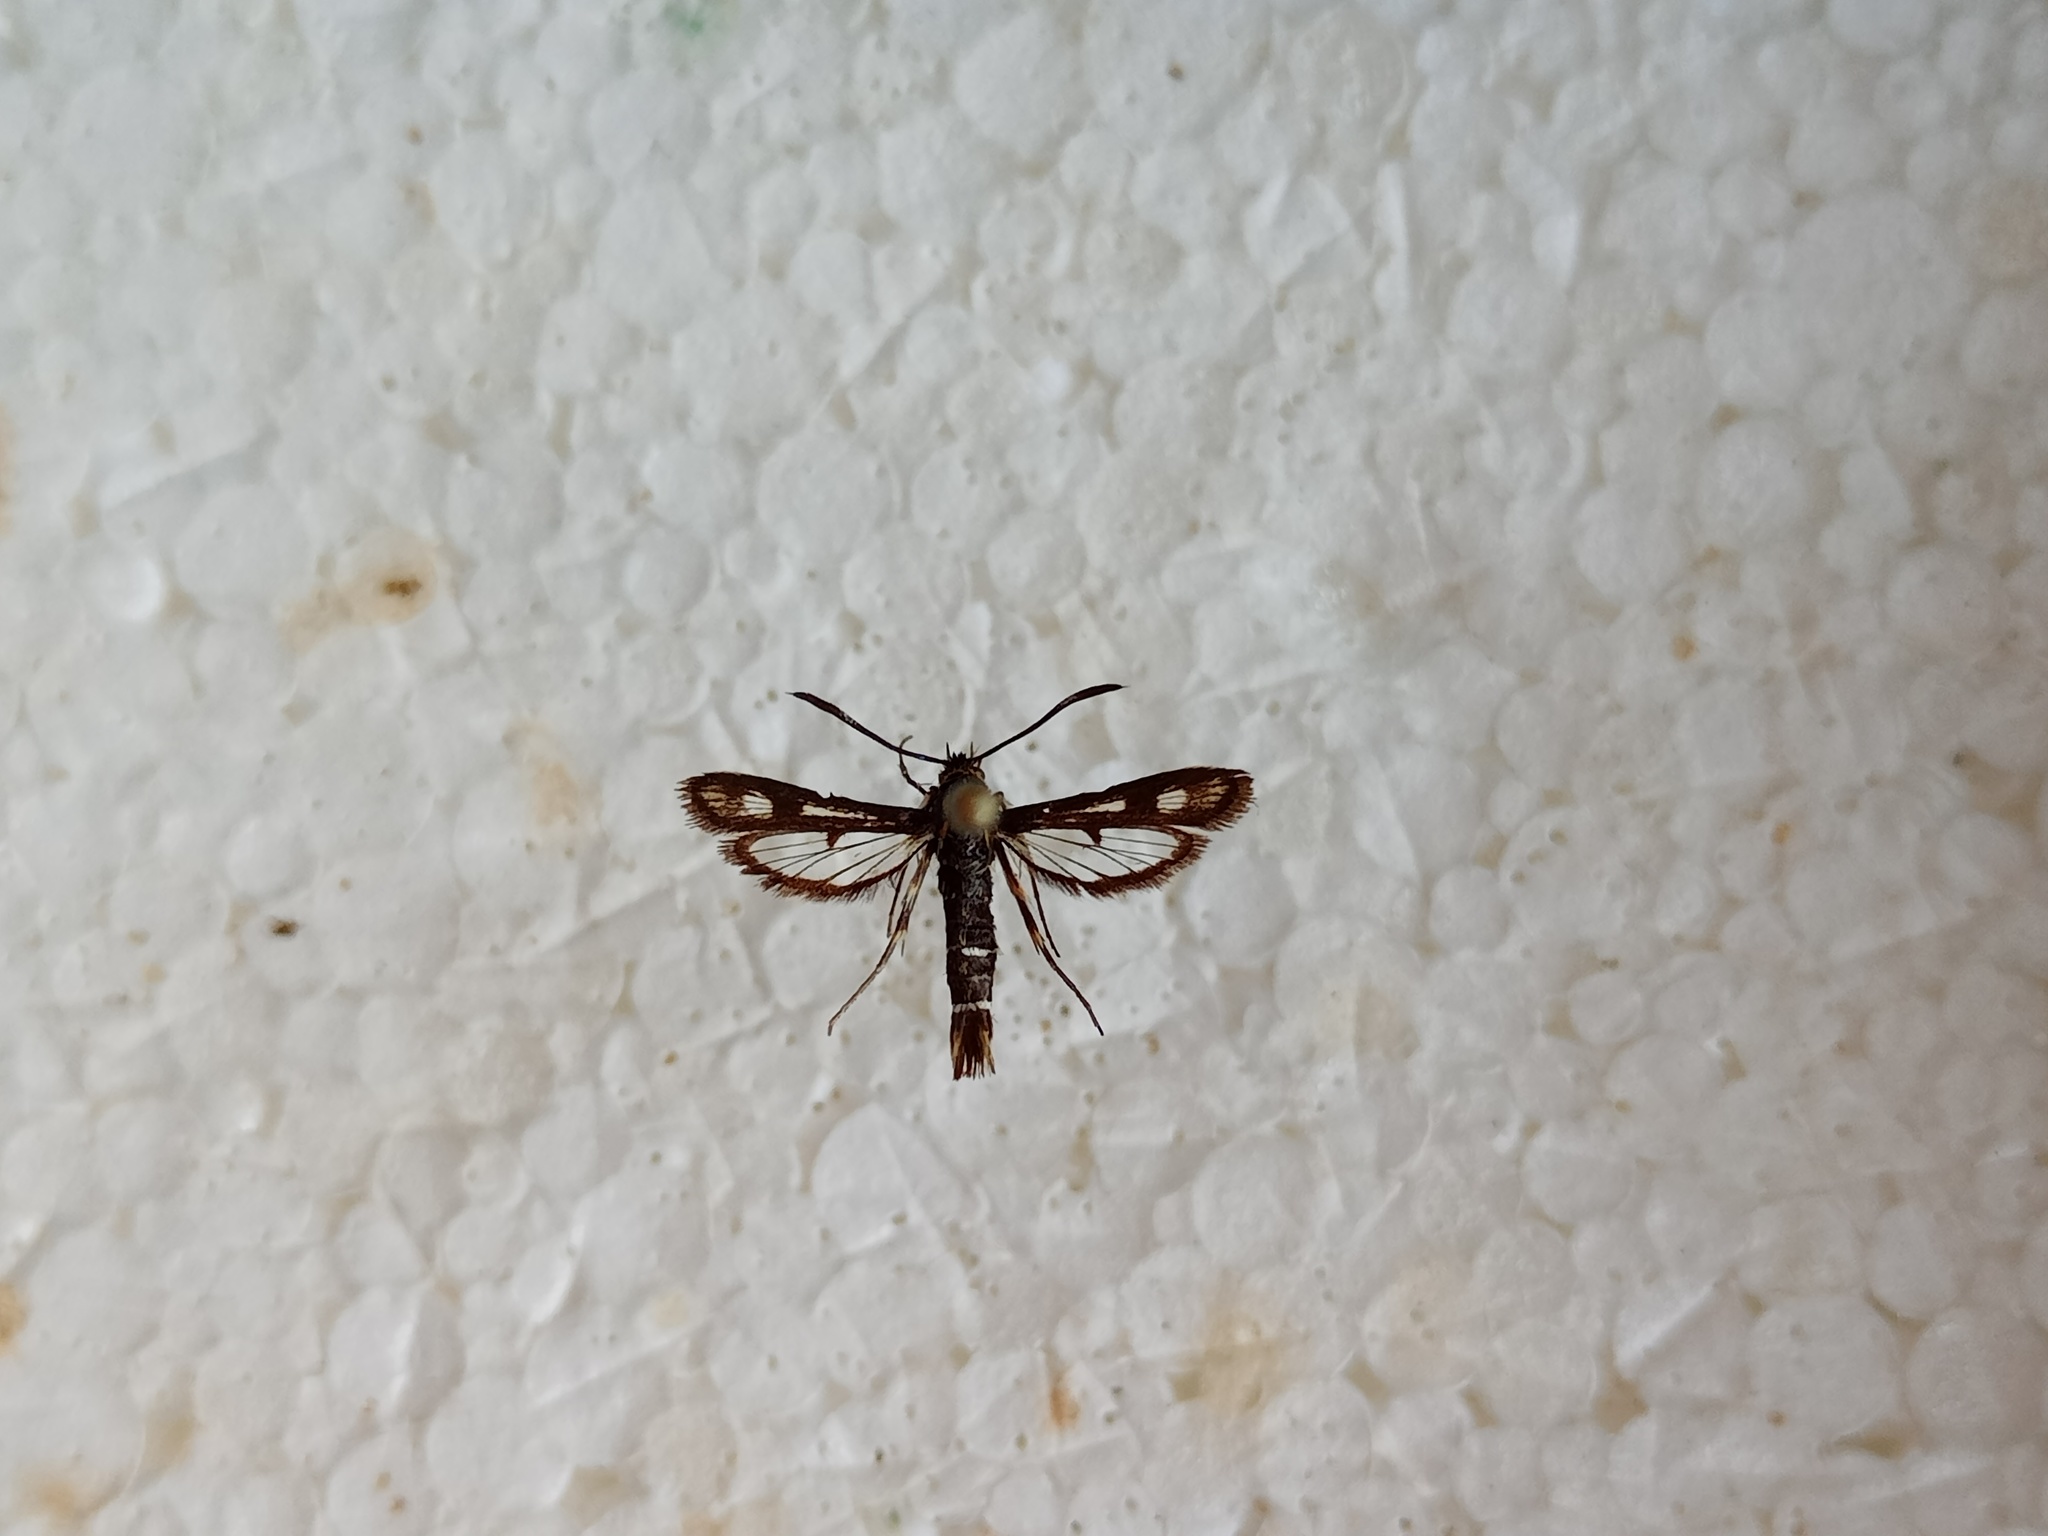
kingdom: Animalia
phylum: Arthropoda
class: Insecta
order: Lepidoptera
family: Sesiidae
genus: Pyropteron
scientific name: Pyropteron muscaeformis
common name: Thrift clearwing
